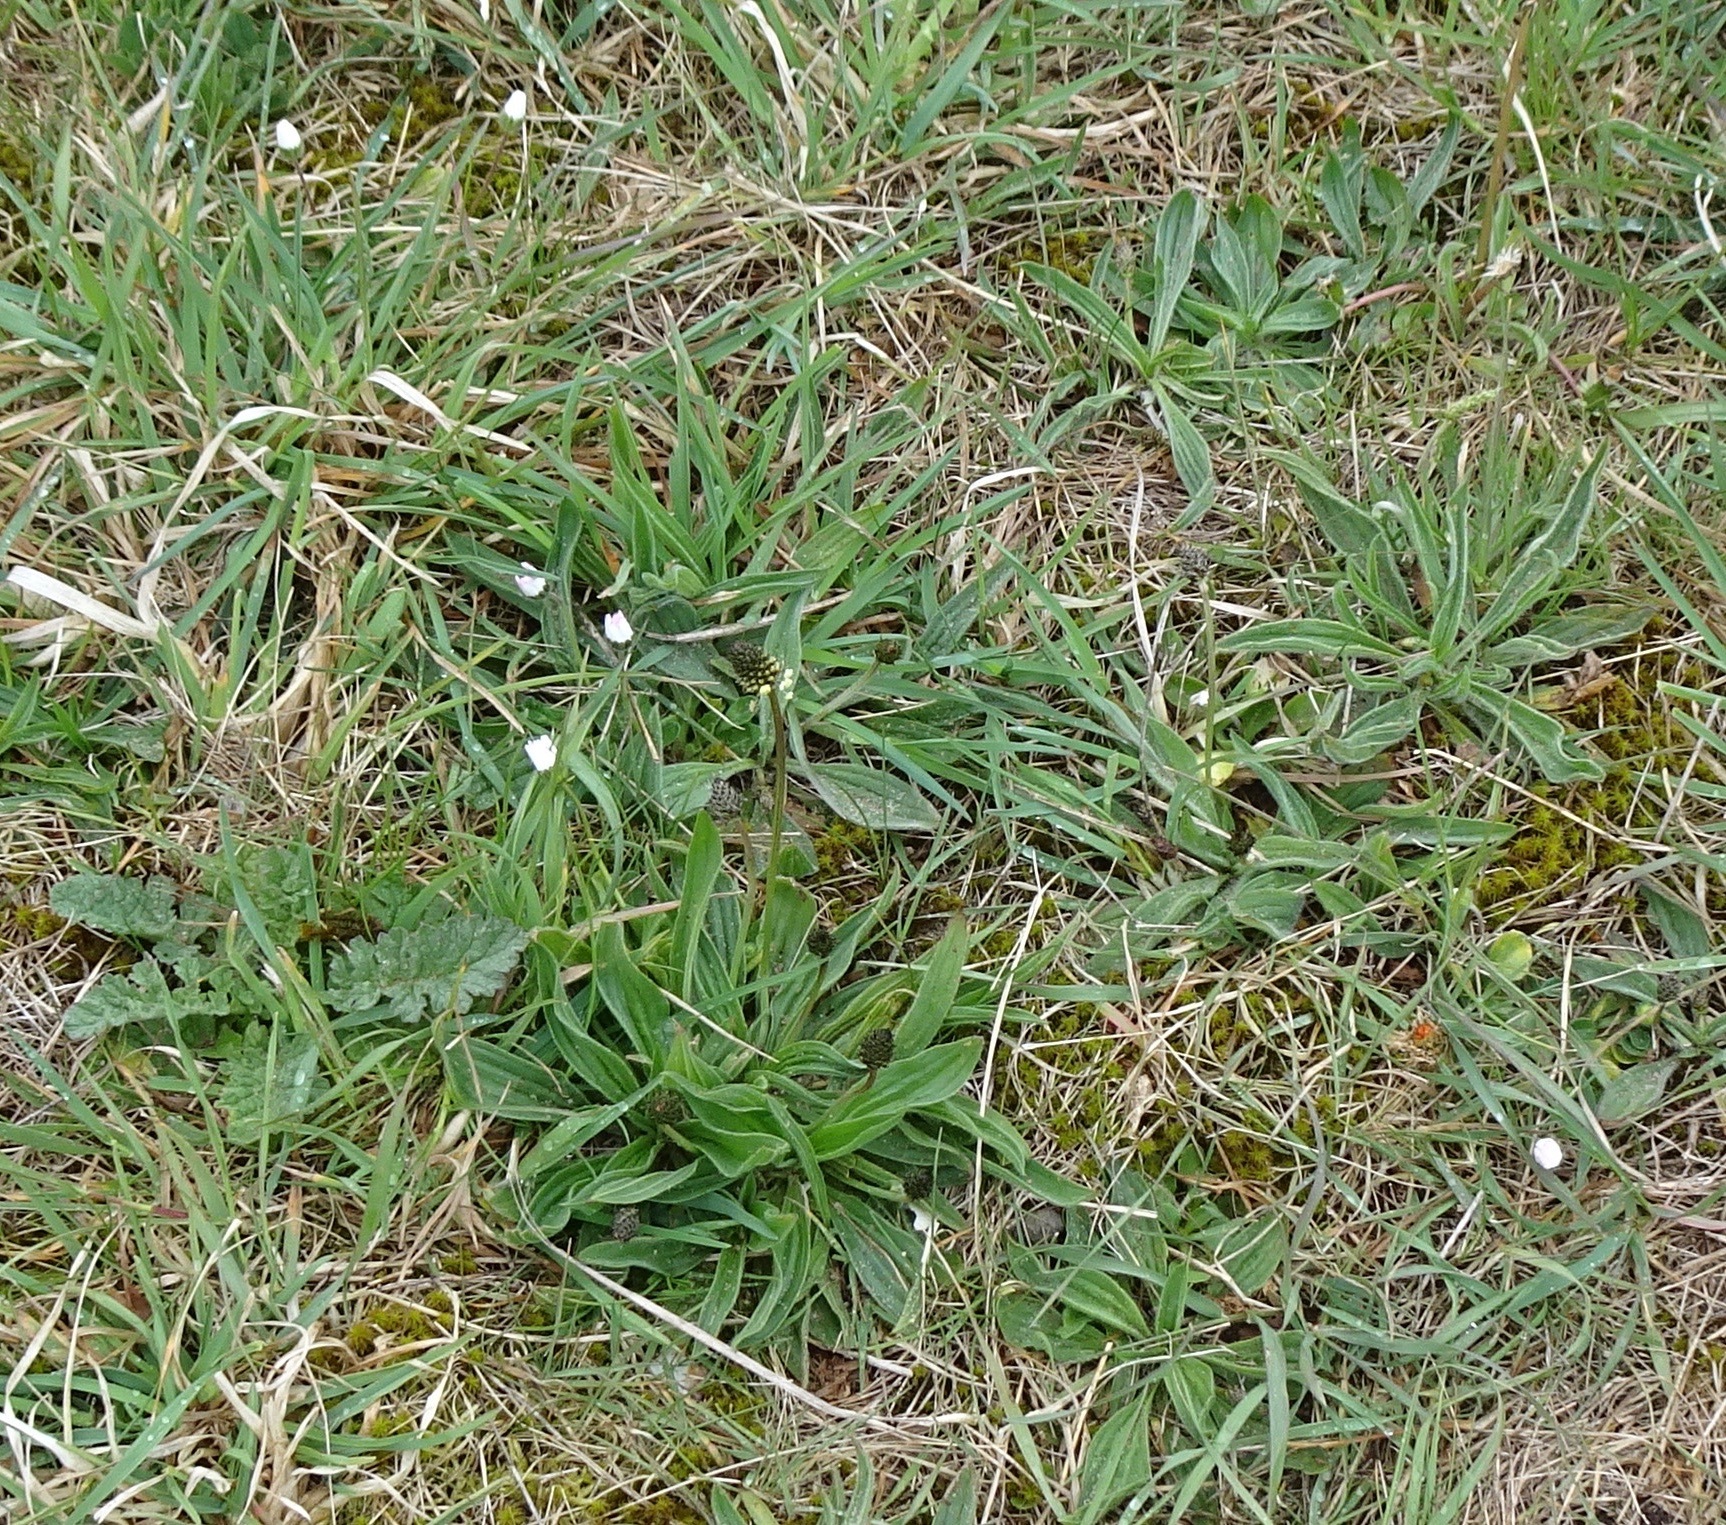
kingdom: Plantae
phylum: Tracheophyta
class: Magnoliopsida
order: Lamiales
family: Plantaginaceae
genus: Plantago
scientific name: Plantago lanceolata
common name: Ribwort plantain
